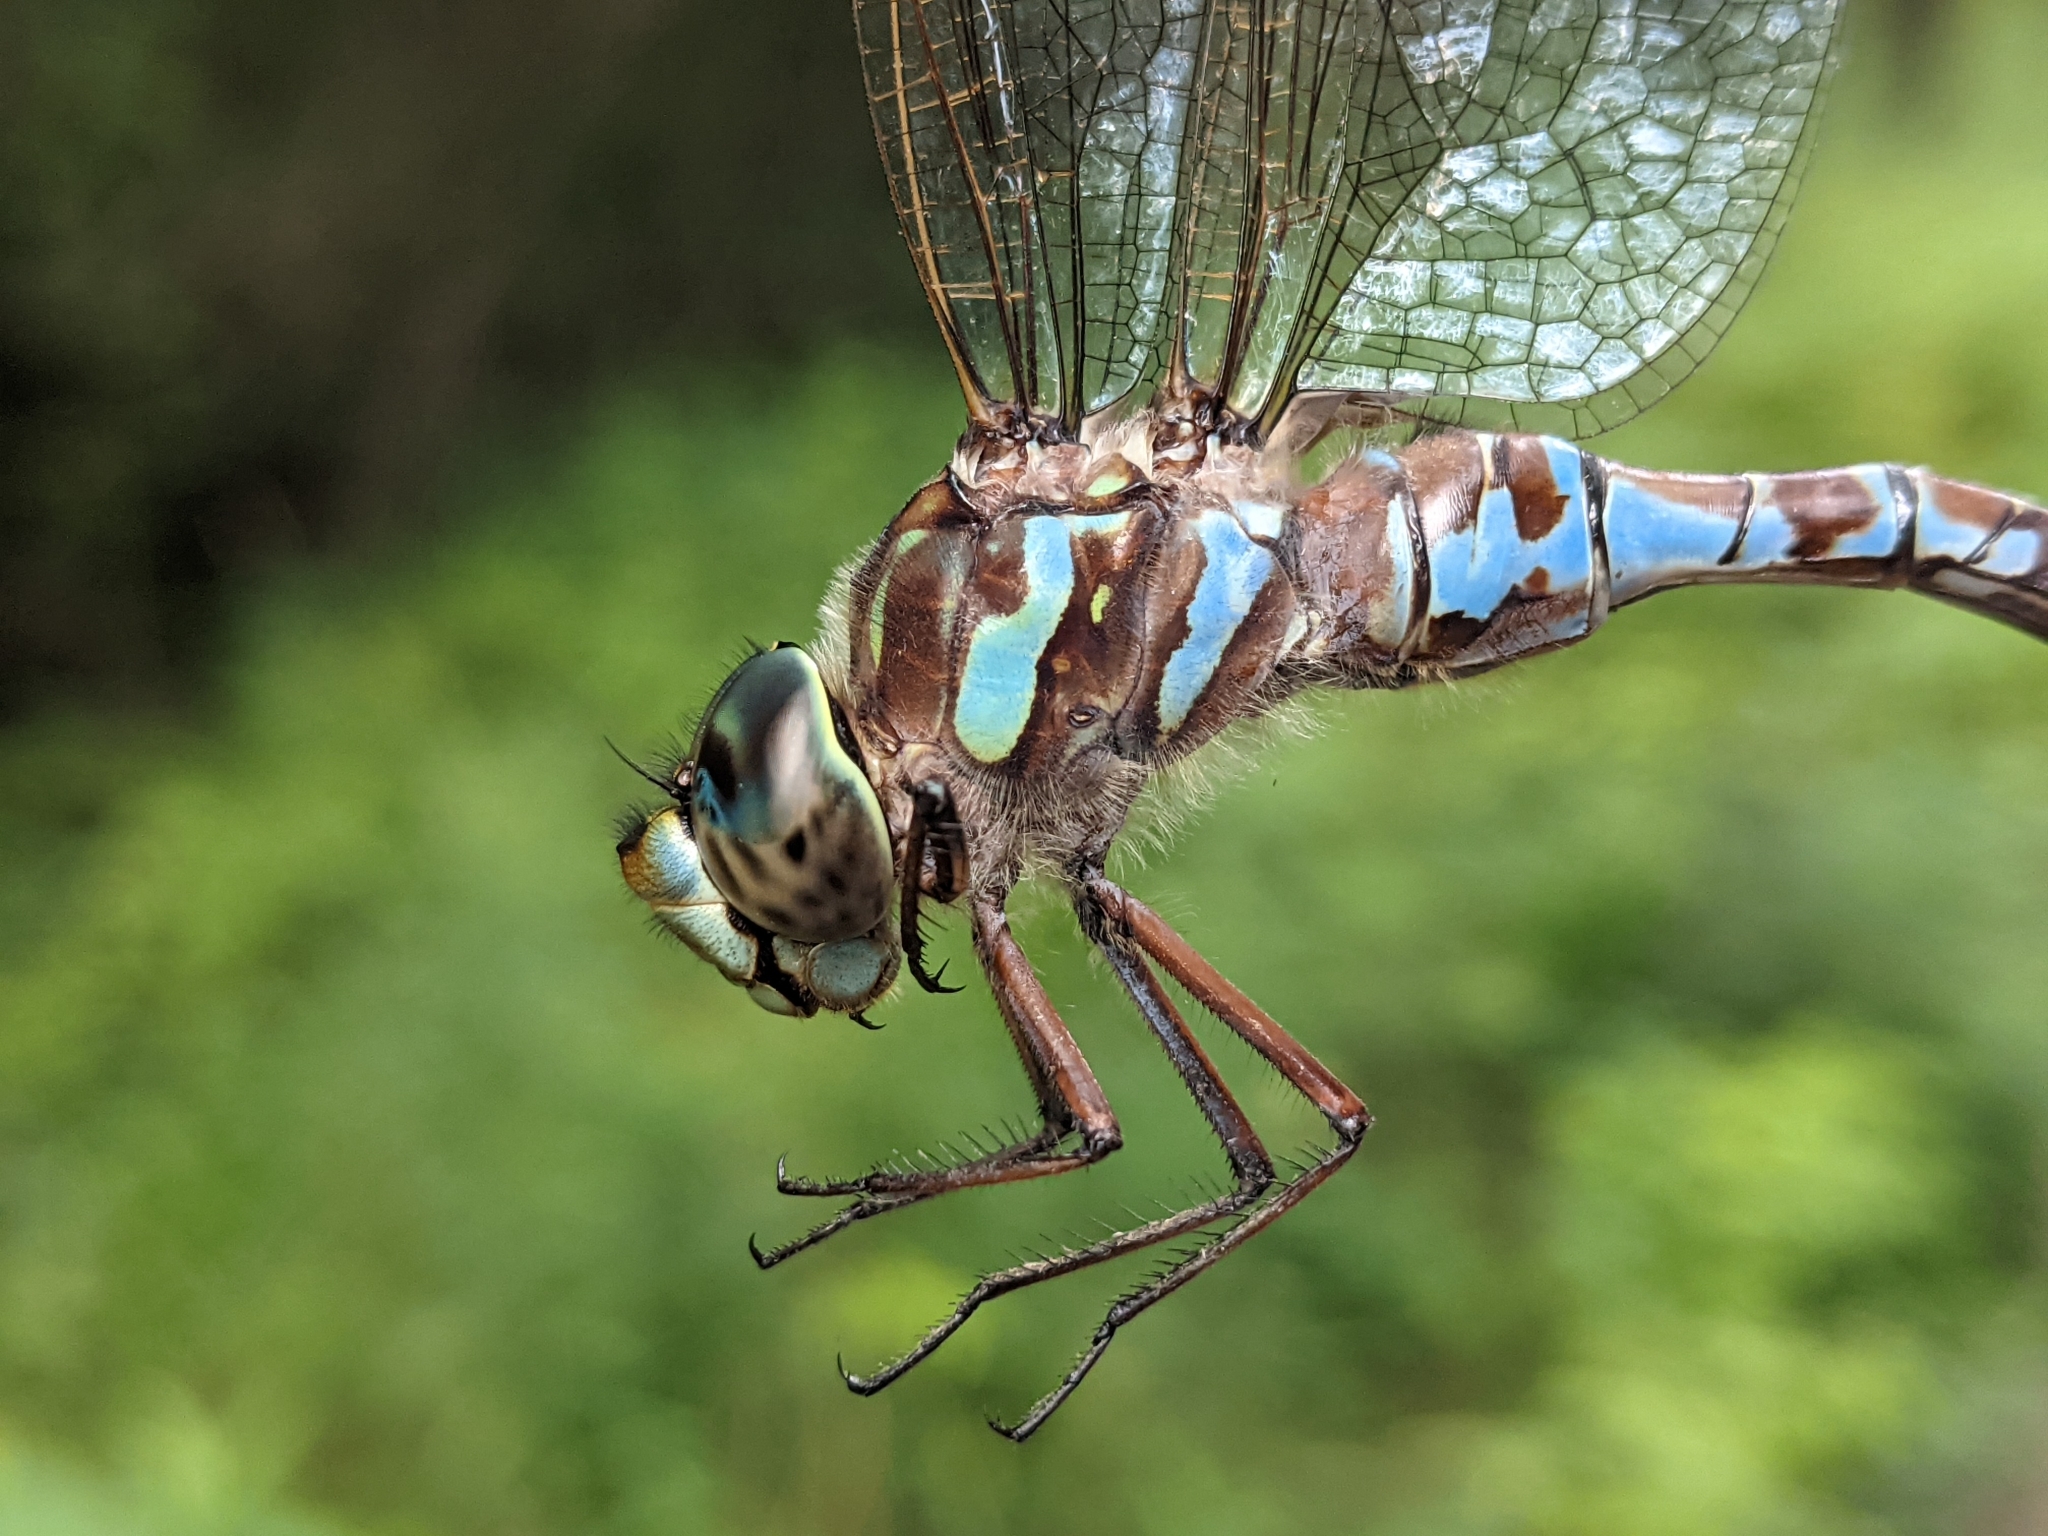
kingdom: Animalia
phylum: Arthropoda
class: Insecta
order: Odonata
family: Aeshnidae
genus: Aeshna
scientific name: Aeshna canadensis
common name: Canada darner
